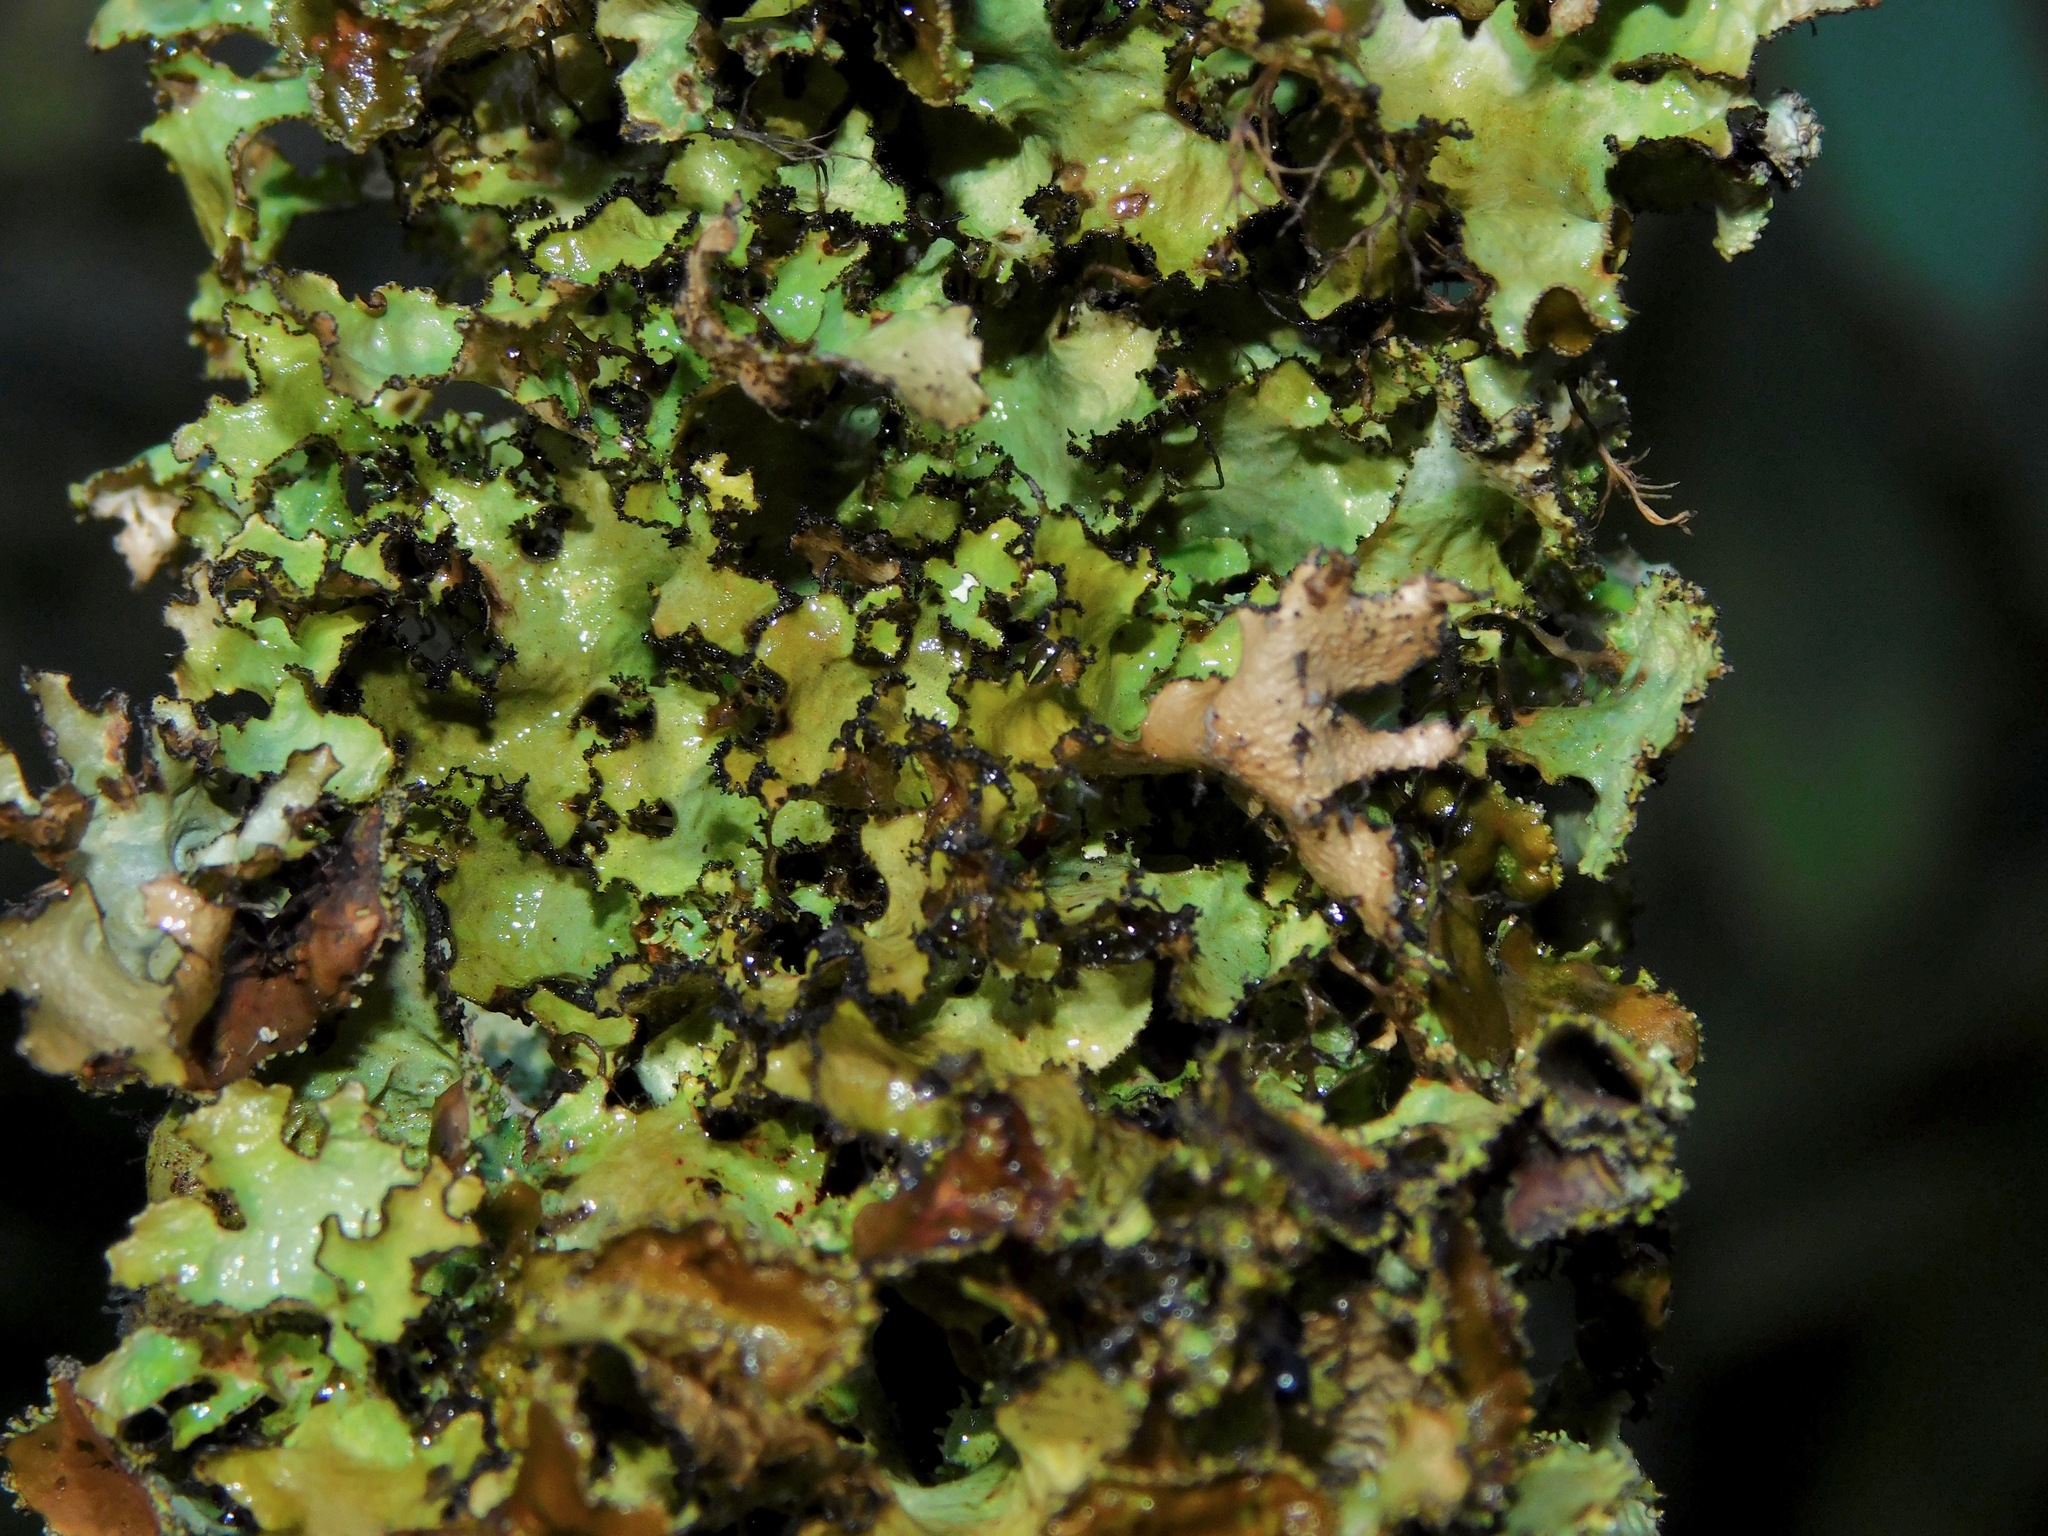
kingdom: Fungi
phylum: Ascomycota
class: Lecanoromycetes
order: Lecanorales
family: Parmeliaceae
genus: Nephromopsis
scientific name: Nephromopsis americana
